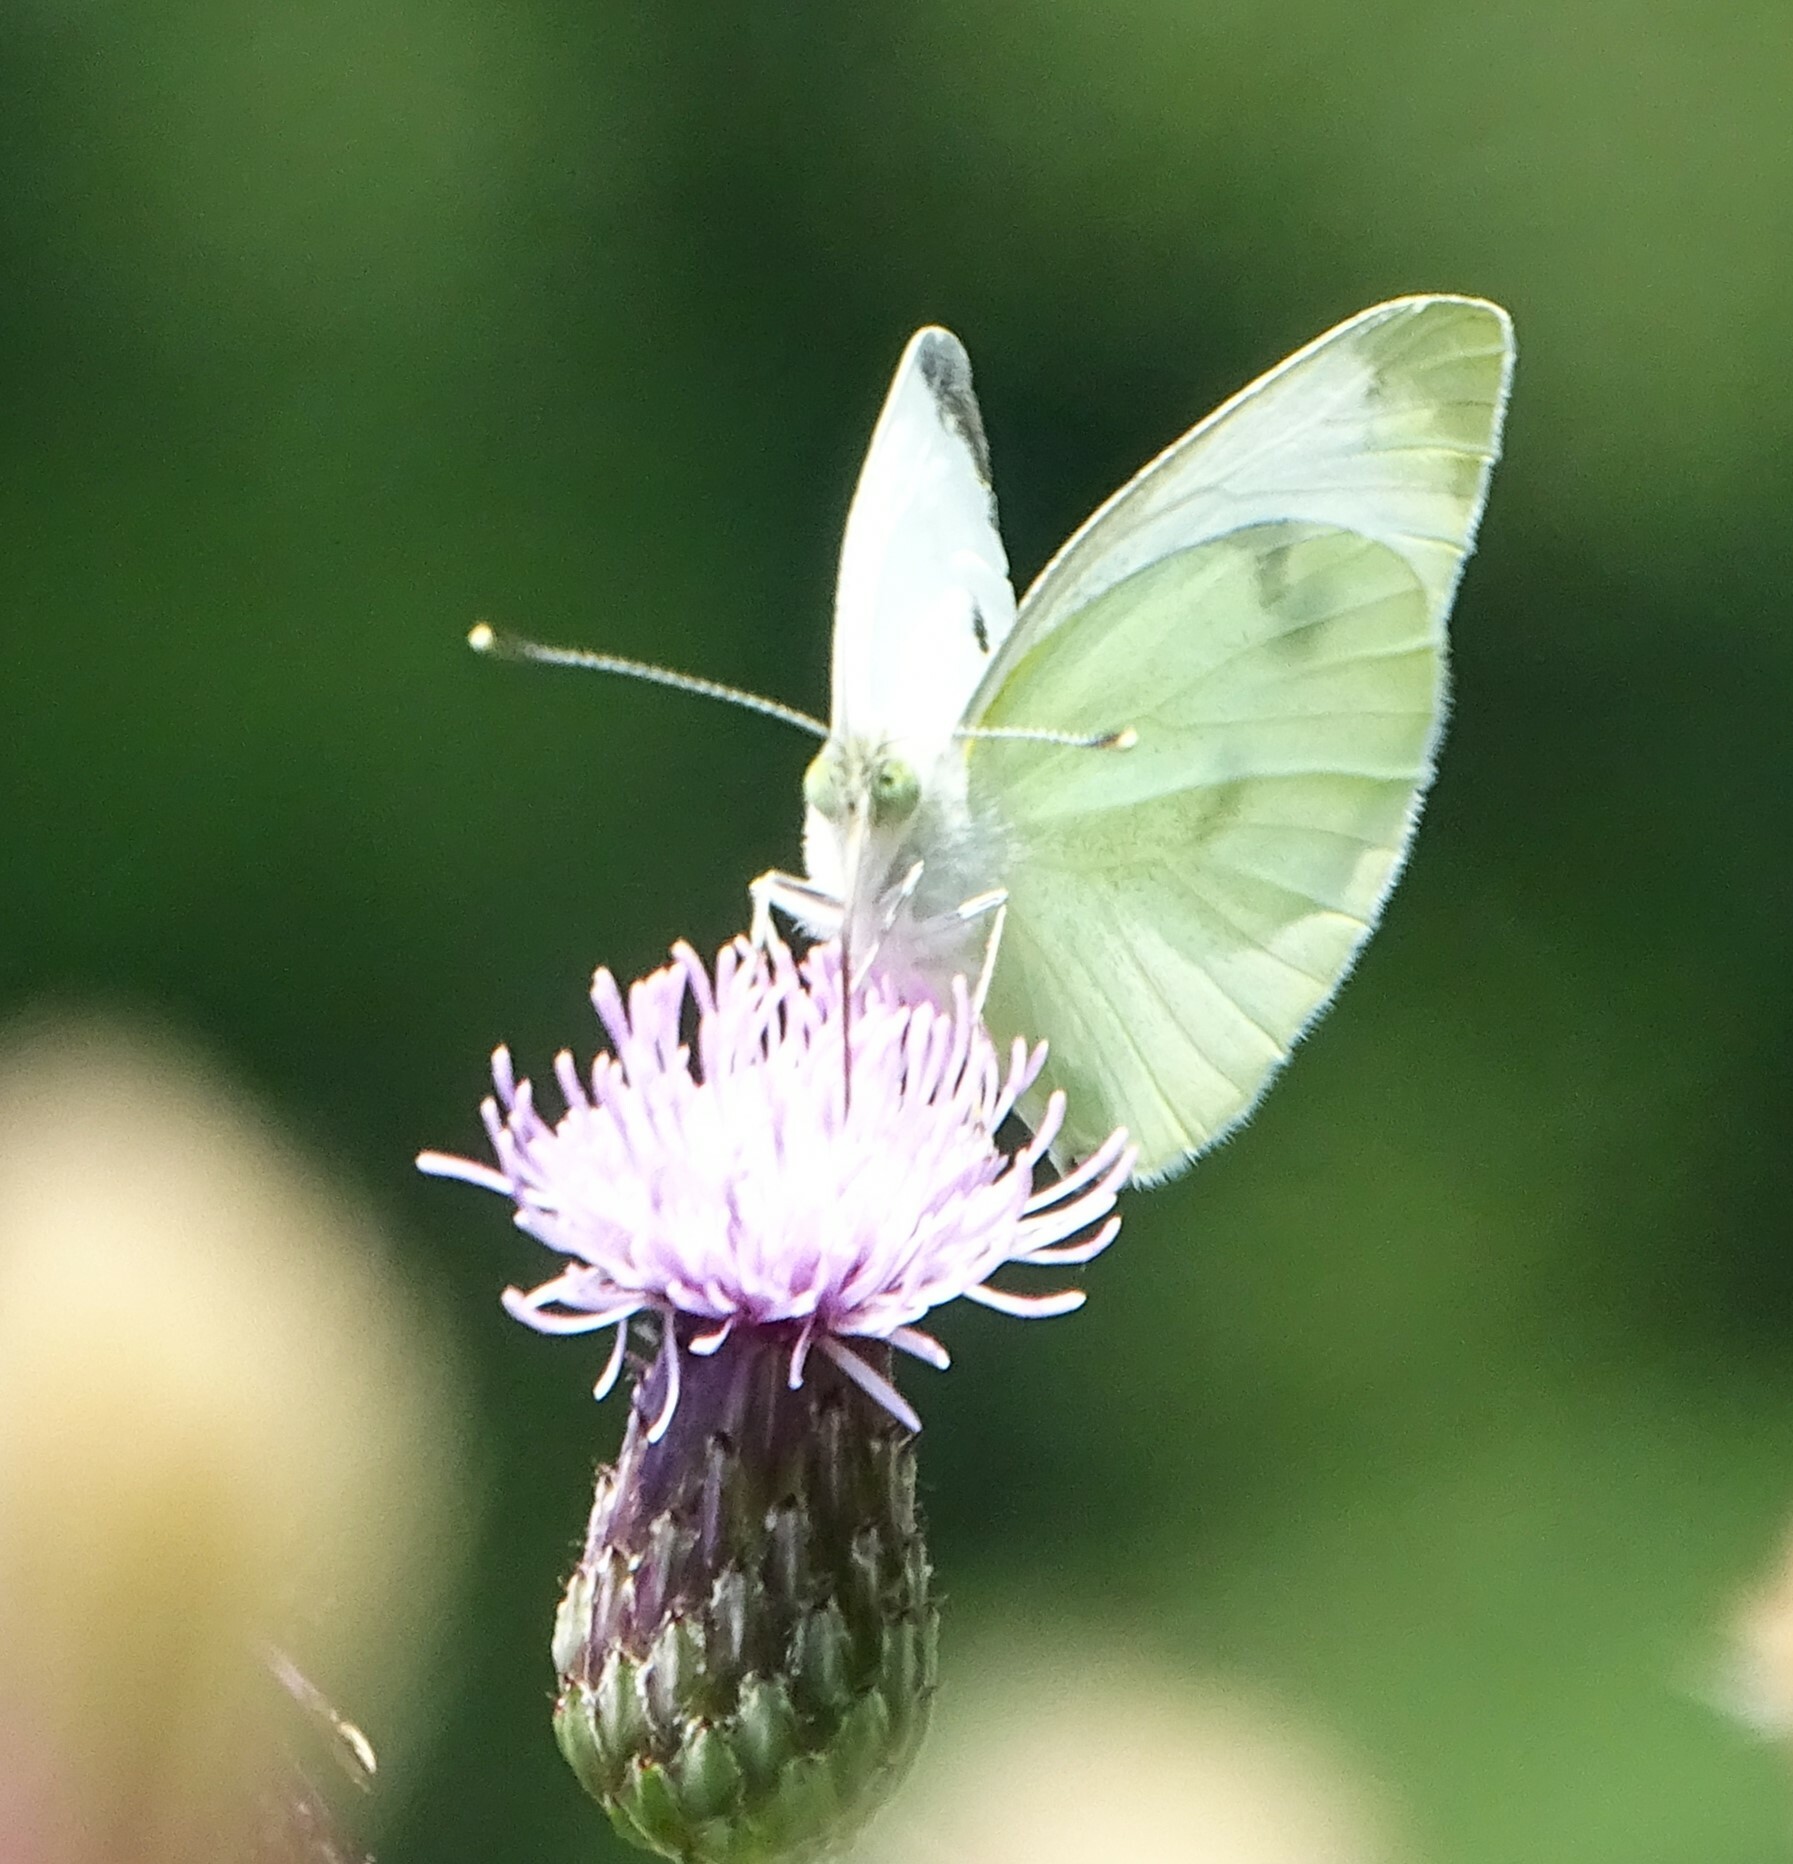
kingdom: Animalia
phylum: Arthropoda
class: Insecta
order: Lepidoptera
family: Pieridae
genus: Pieris
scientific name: Pieris rapae
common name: Small white
